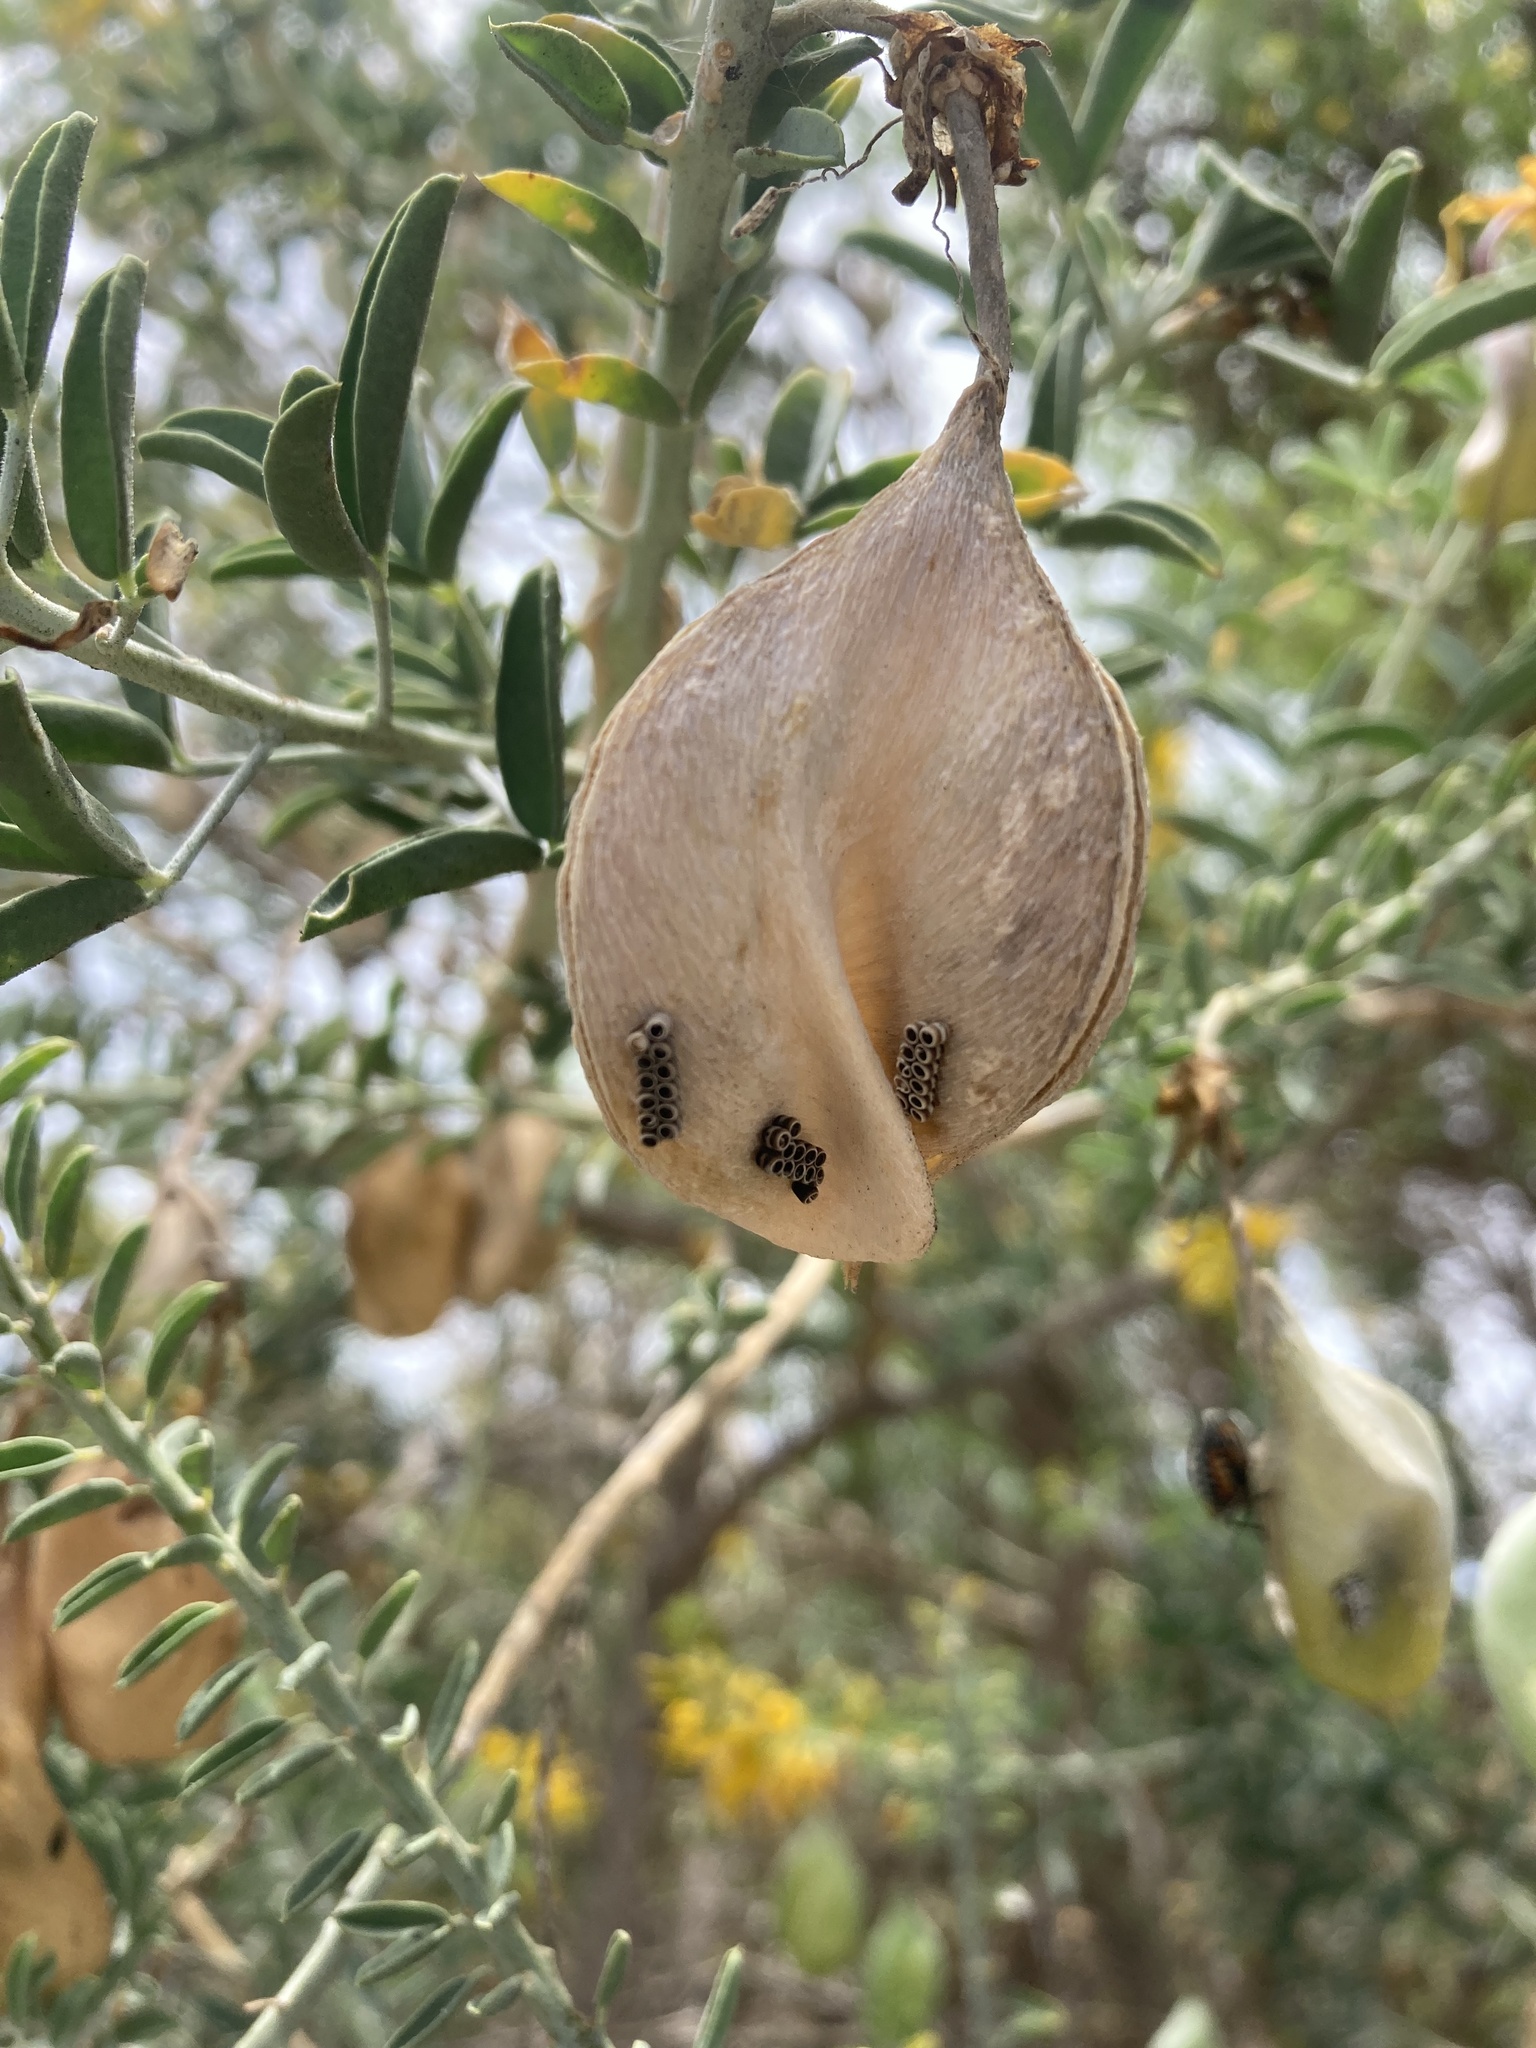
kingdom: Animalia
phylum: Arthropoda
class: Insecta
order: Hemiptera
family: Pentatomidae
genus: Murgantia
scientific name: Murgantia histrionica
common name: Harlequin bug
